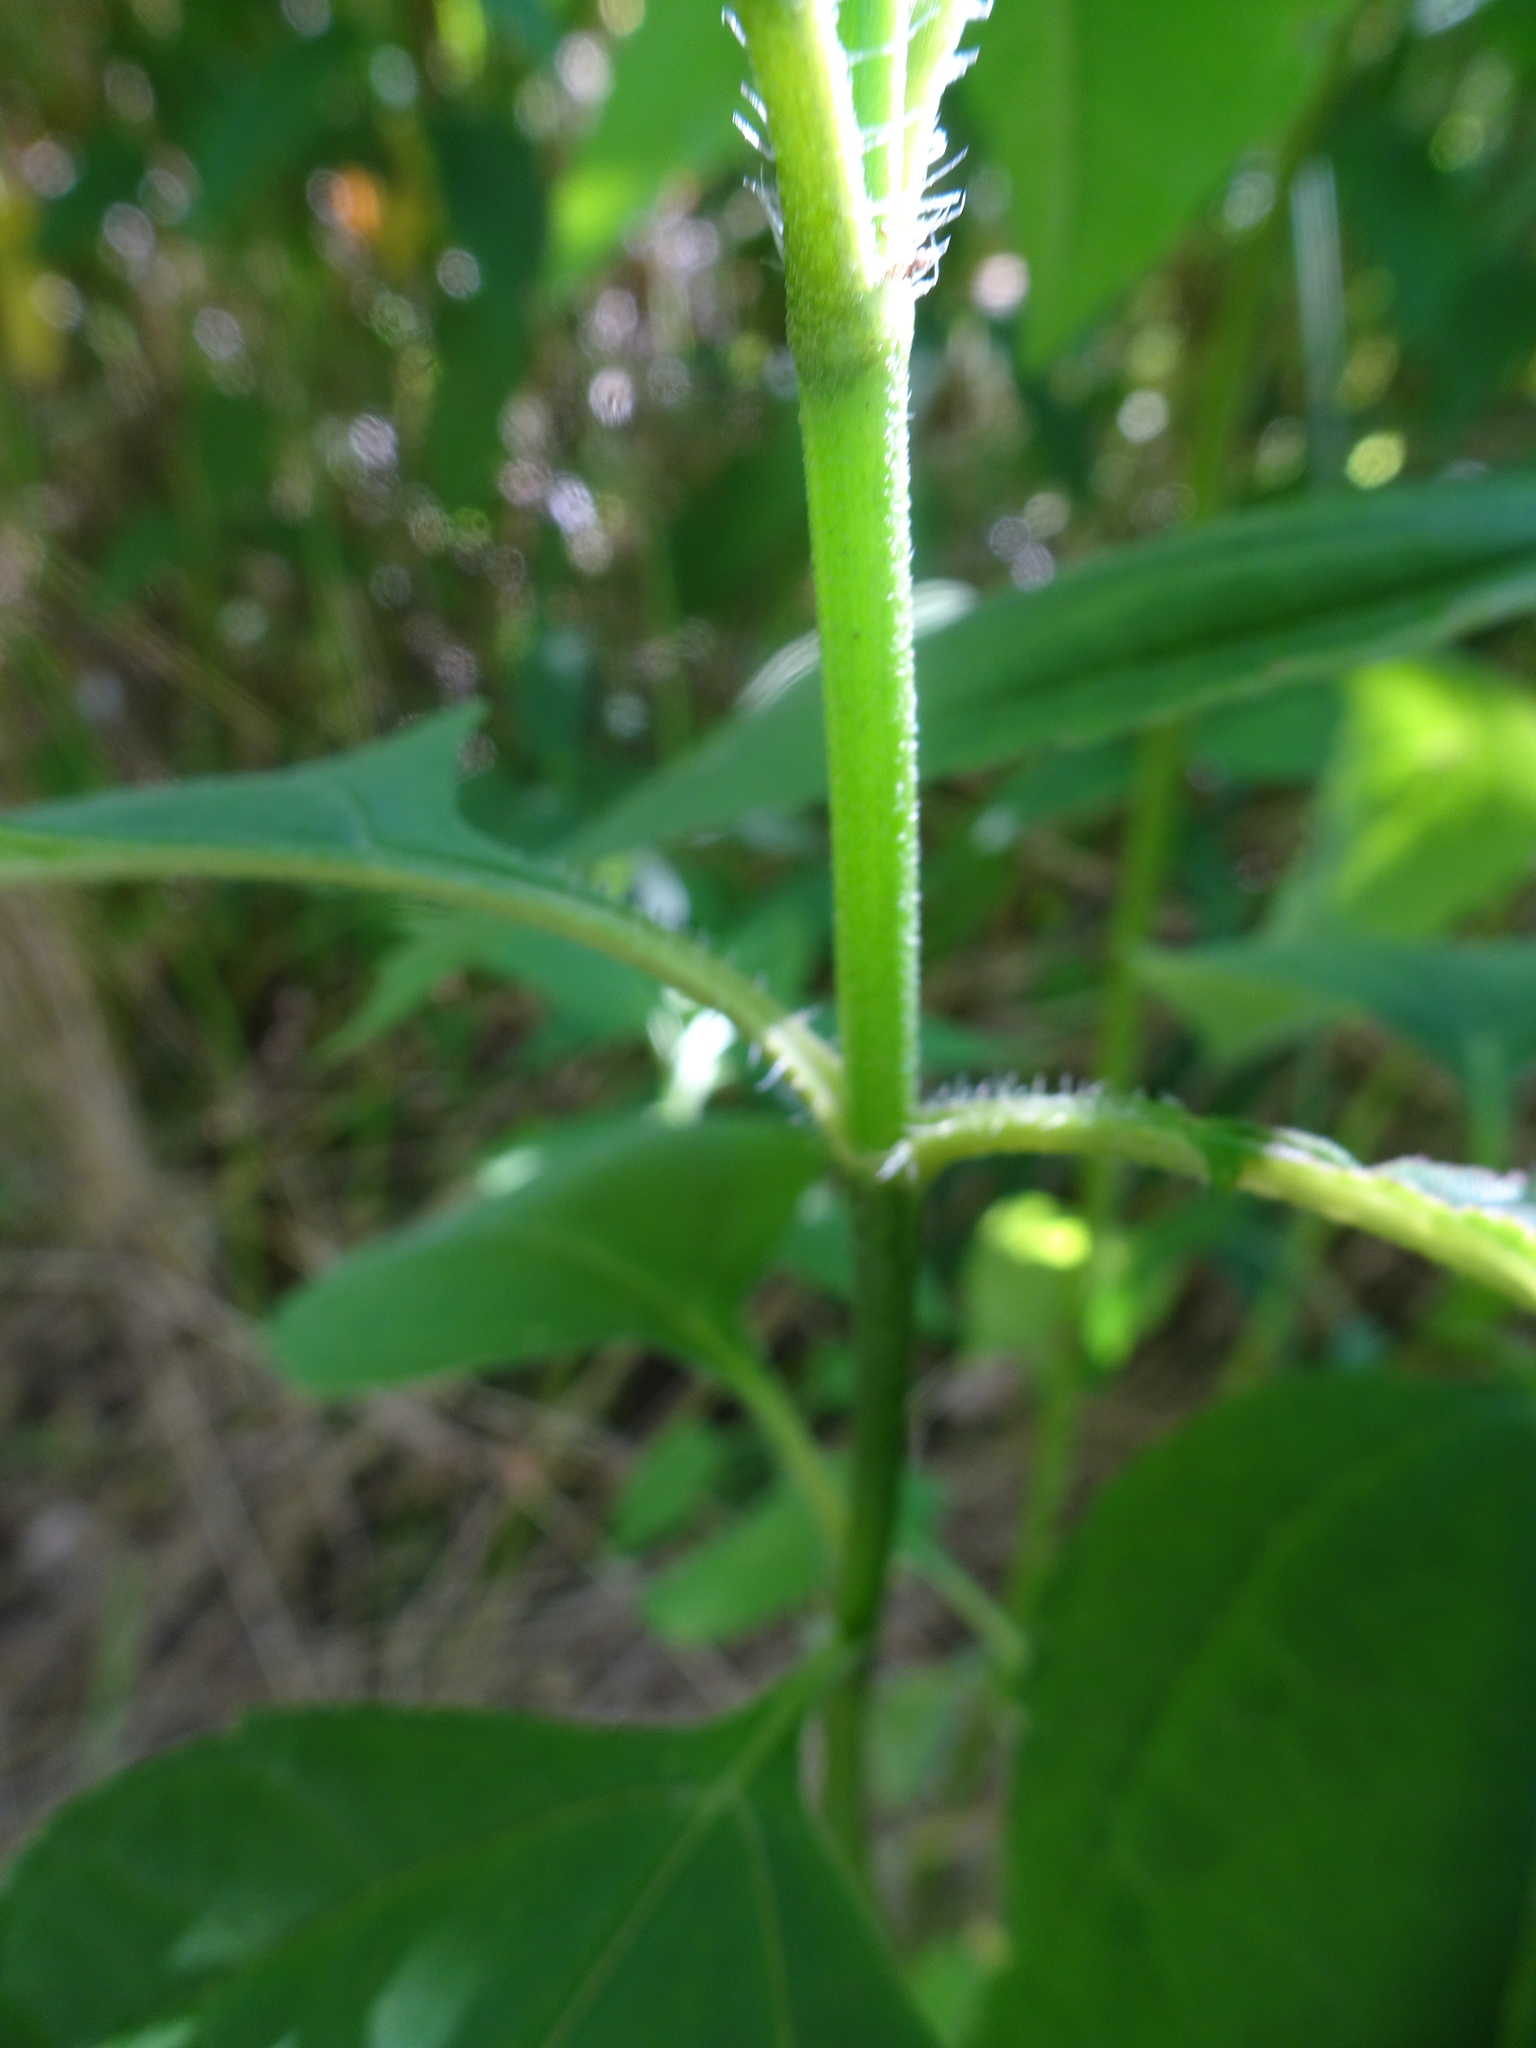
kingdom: Plantae
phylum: Tracheophyta
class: Magnoliopsida
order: Asterales
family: Asteraceae
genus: Helianthus
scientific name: Helianthus tuberosus
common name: Jerusalem artichoke
